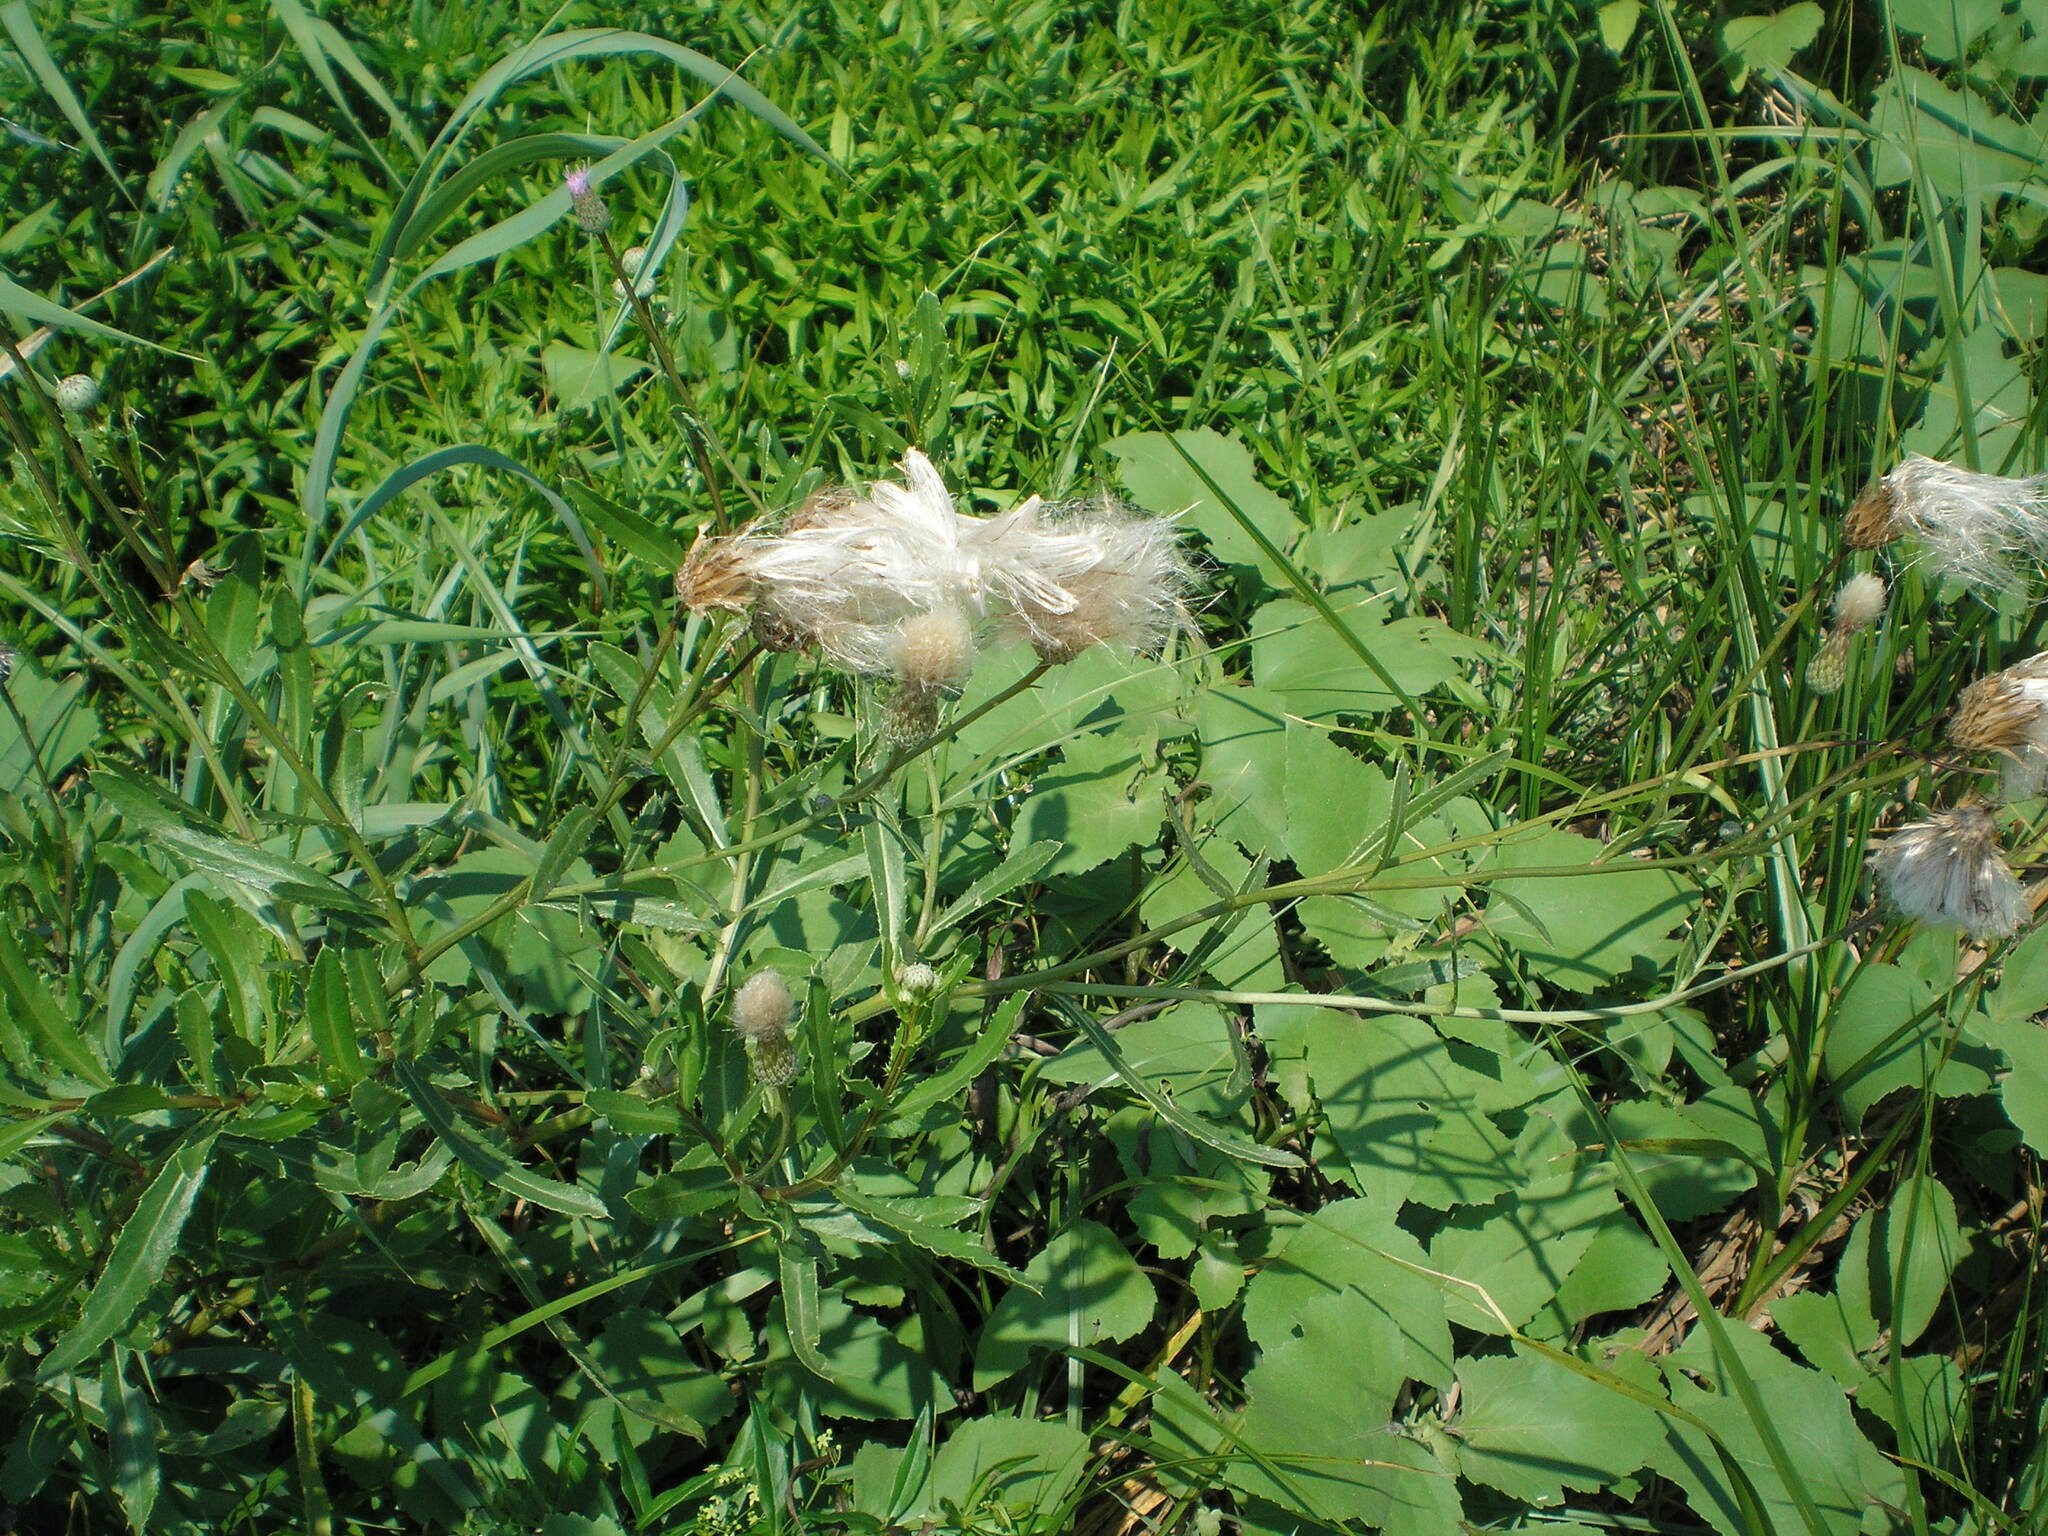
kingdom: Plantae
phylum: Tracheophyta
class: Magnoliopsida
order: Asterales
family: Asteraceae
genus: Cirsium
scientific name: Cirsium arvense
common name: Creeping thistle
